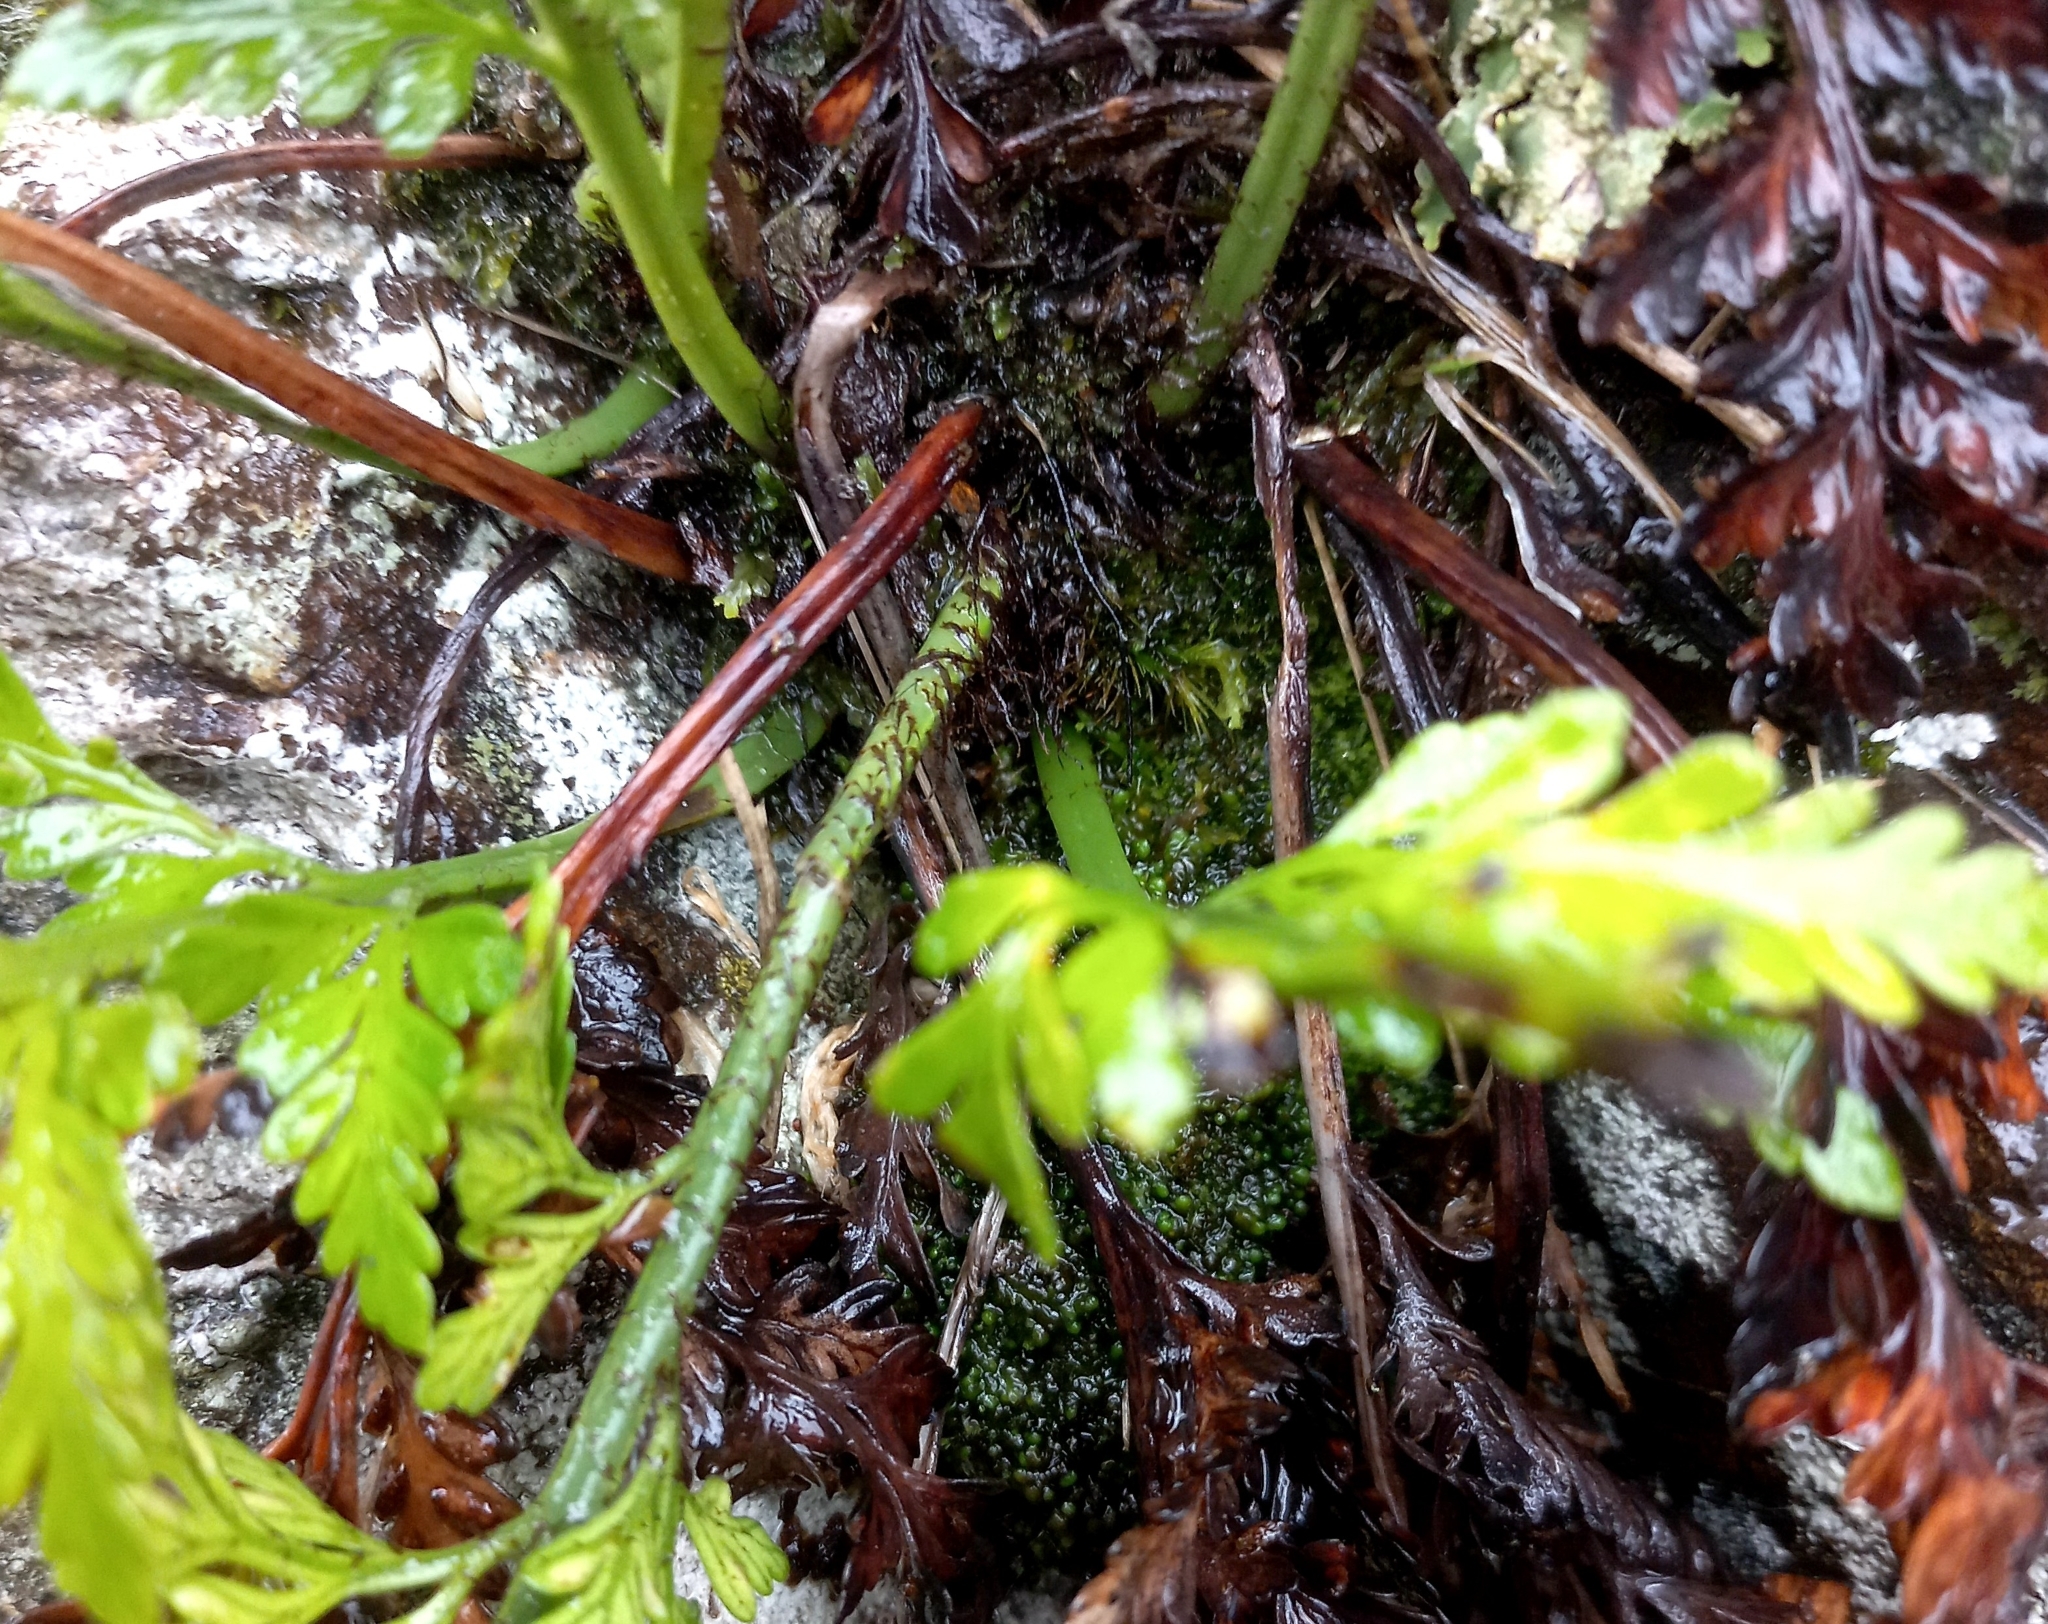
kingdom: Plantae
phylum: Tracheophyta
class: Polypodiopsida
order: Polypodiales
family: Aspleniaceae
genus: Asplenium
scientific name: Asplenium appendiculatum
